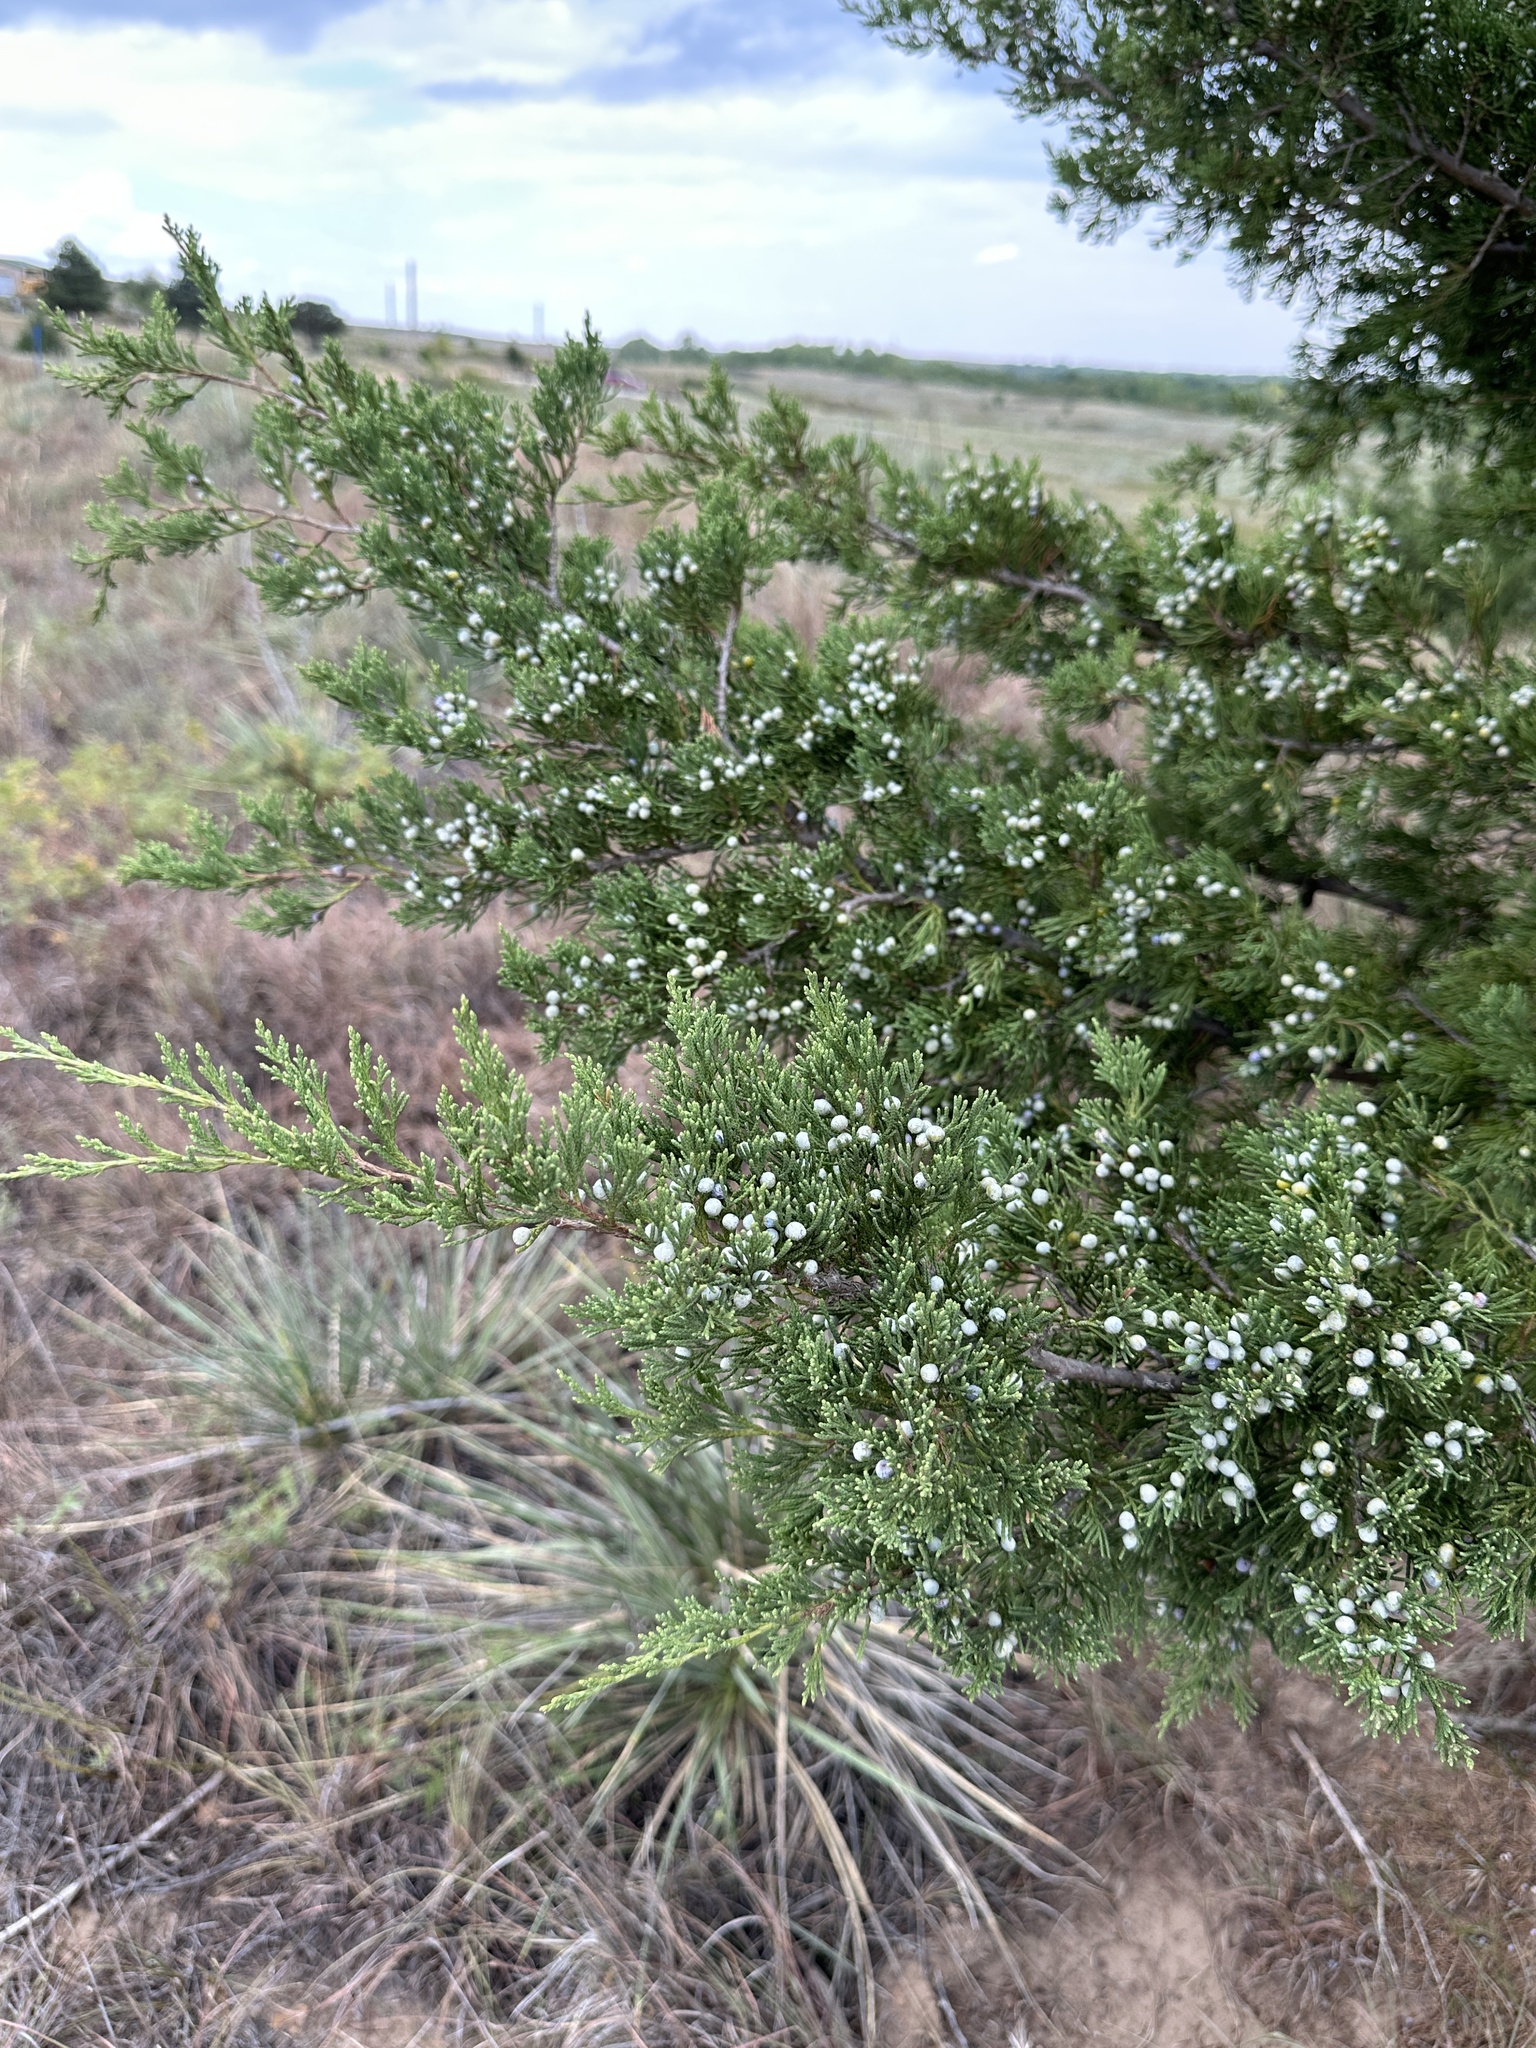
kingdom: Plantae
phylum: Tracheophyta
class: Pinopsida
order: Pinales
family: Cupressaceae
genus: Juniperus
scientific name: Juniperus virginiana
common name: Red juniper
